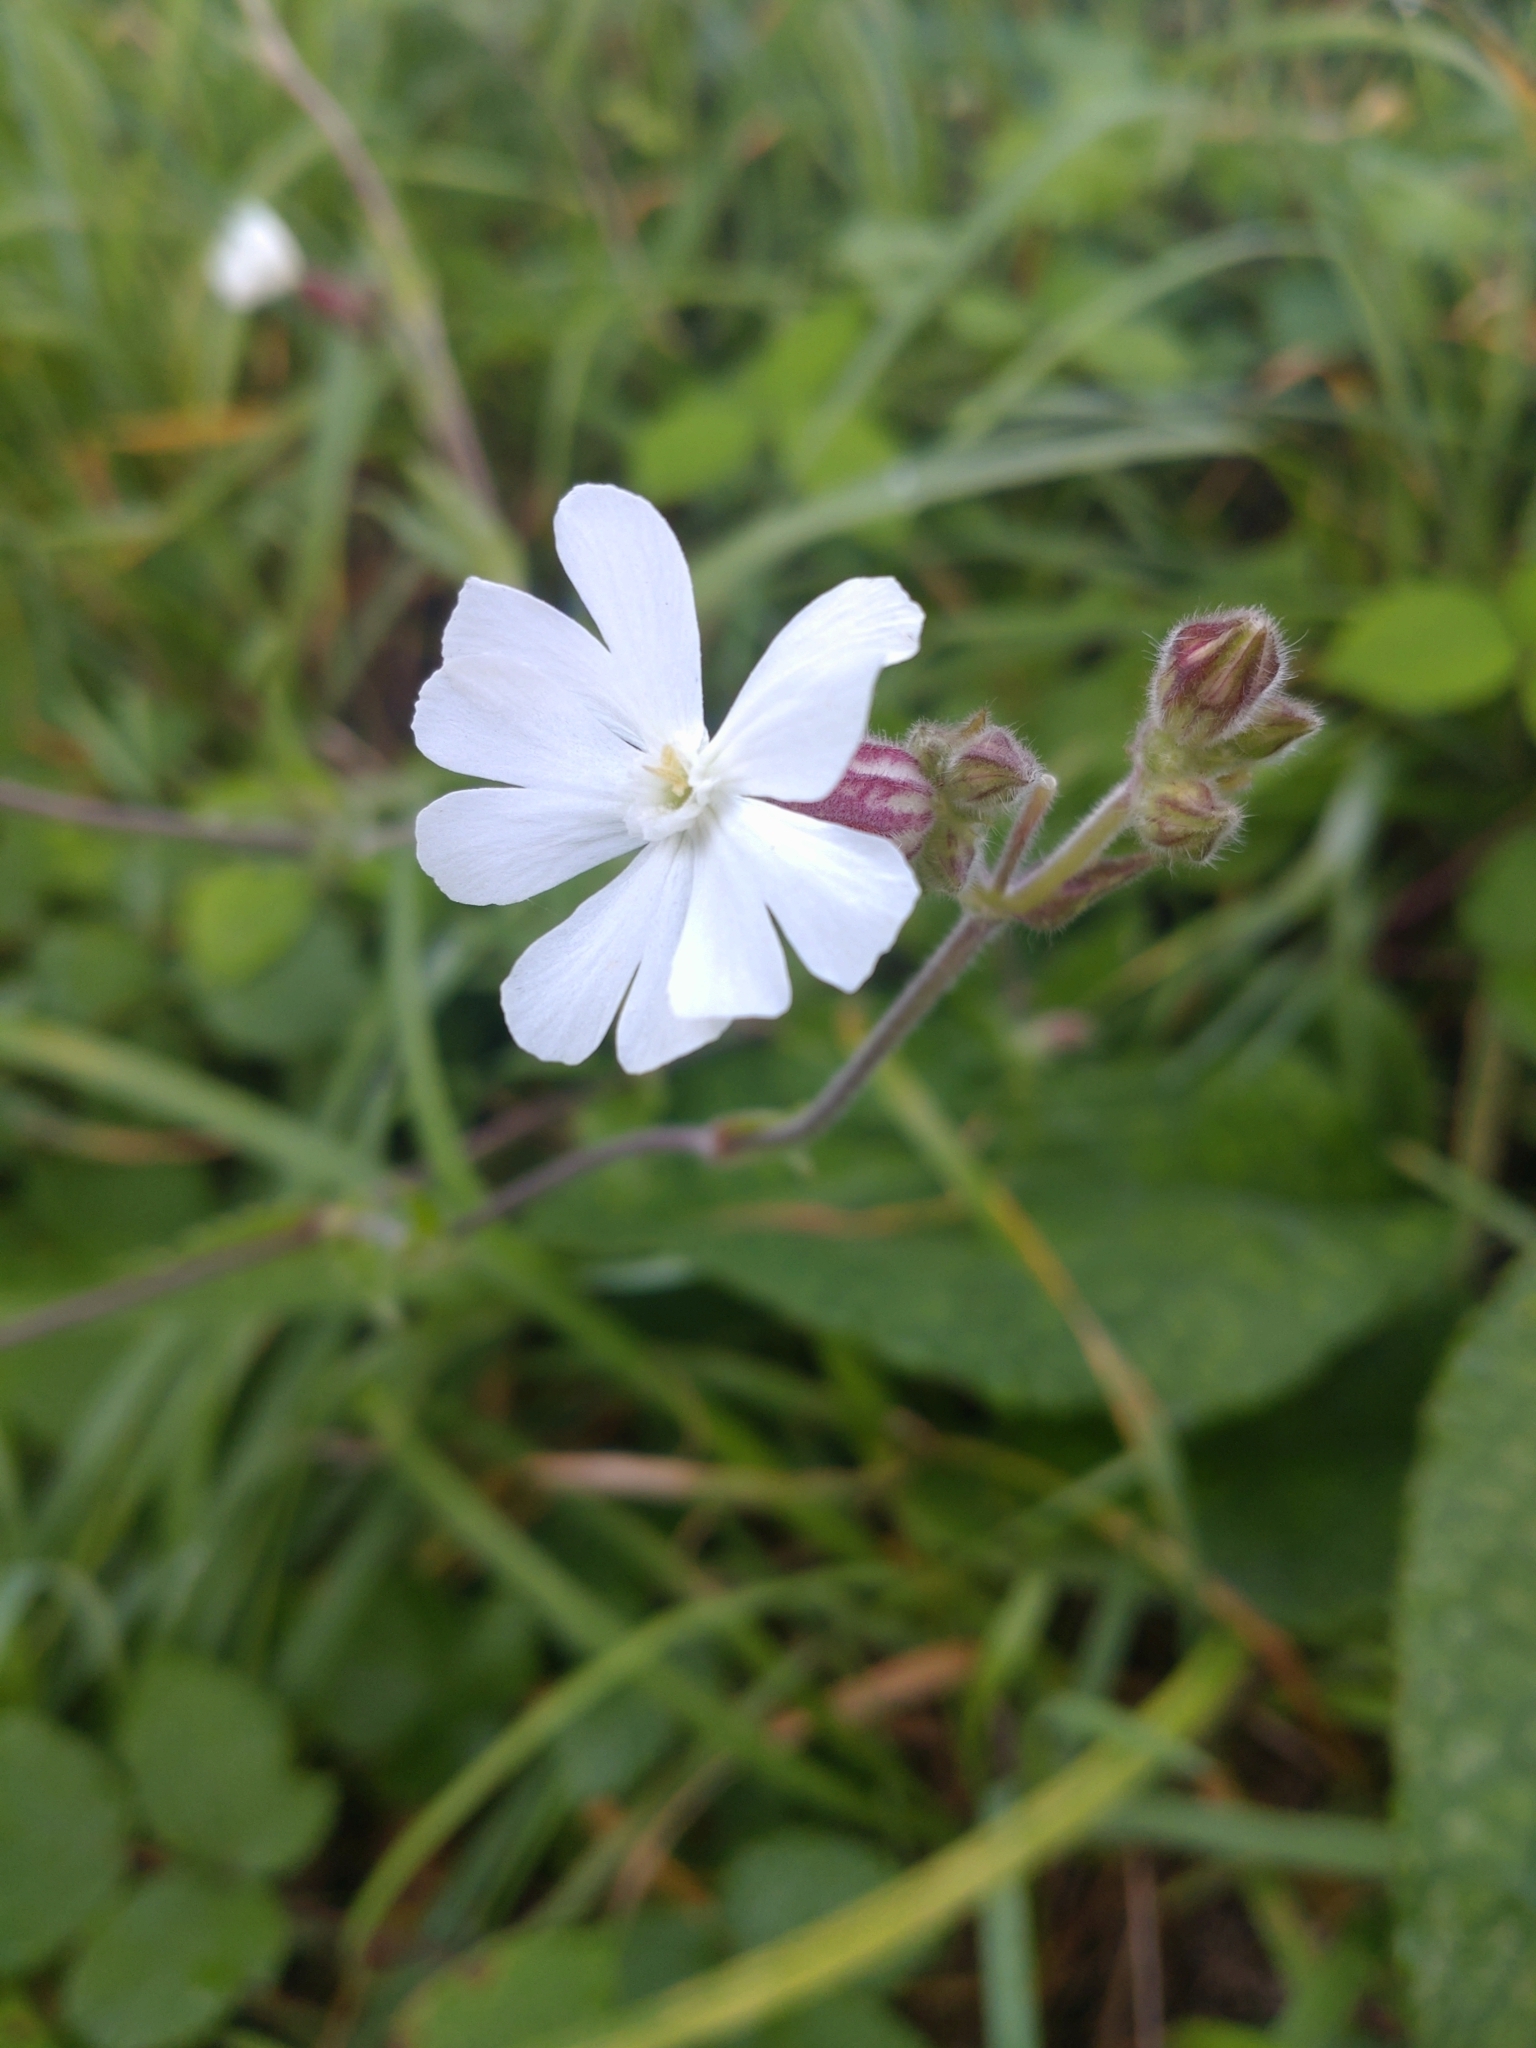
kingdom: Plantae
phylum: Tracheophyta
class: Magnoliopsida
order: Caryophyllales
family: Caryophyllaceae
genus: Silene
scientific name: Silene latifolia
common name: White campion
